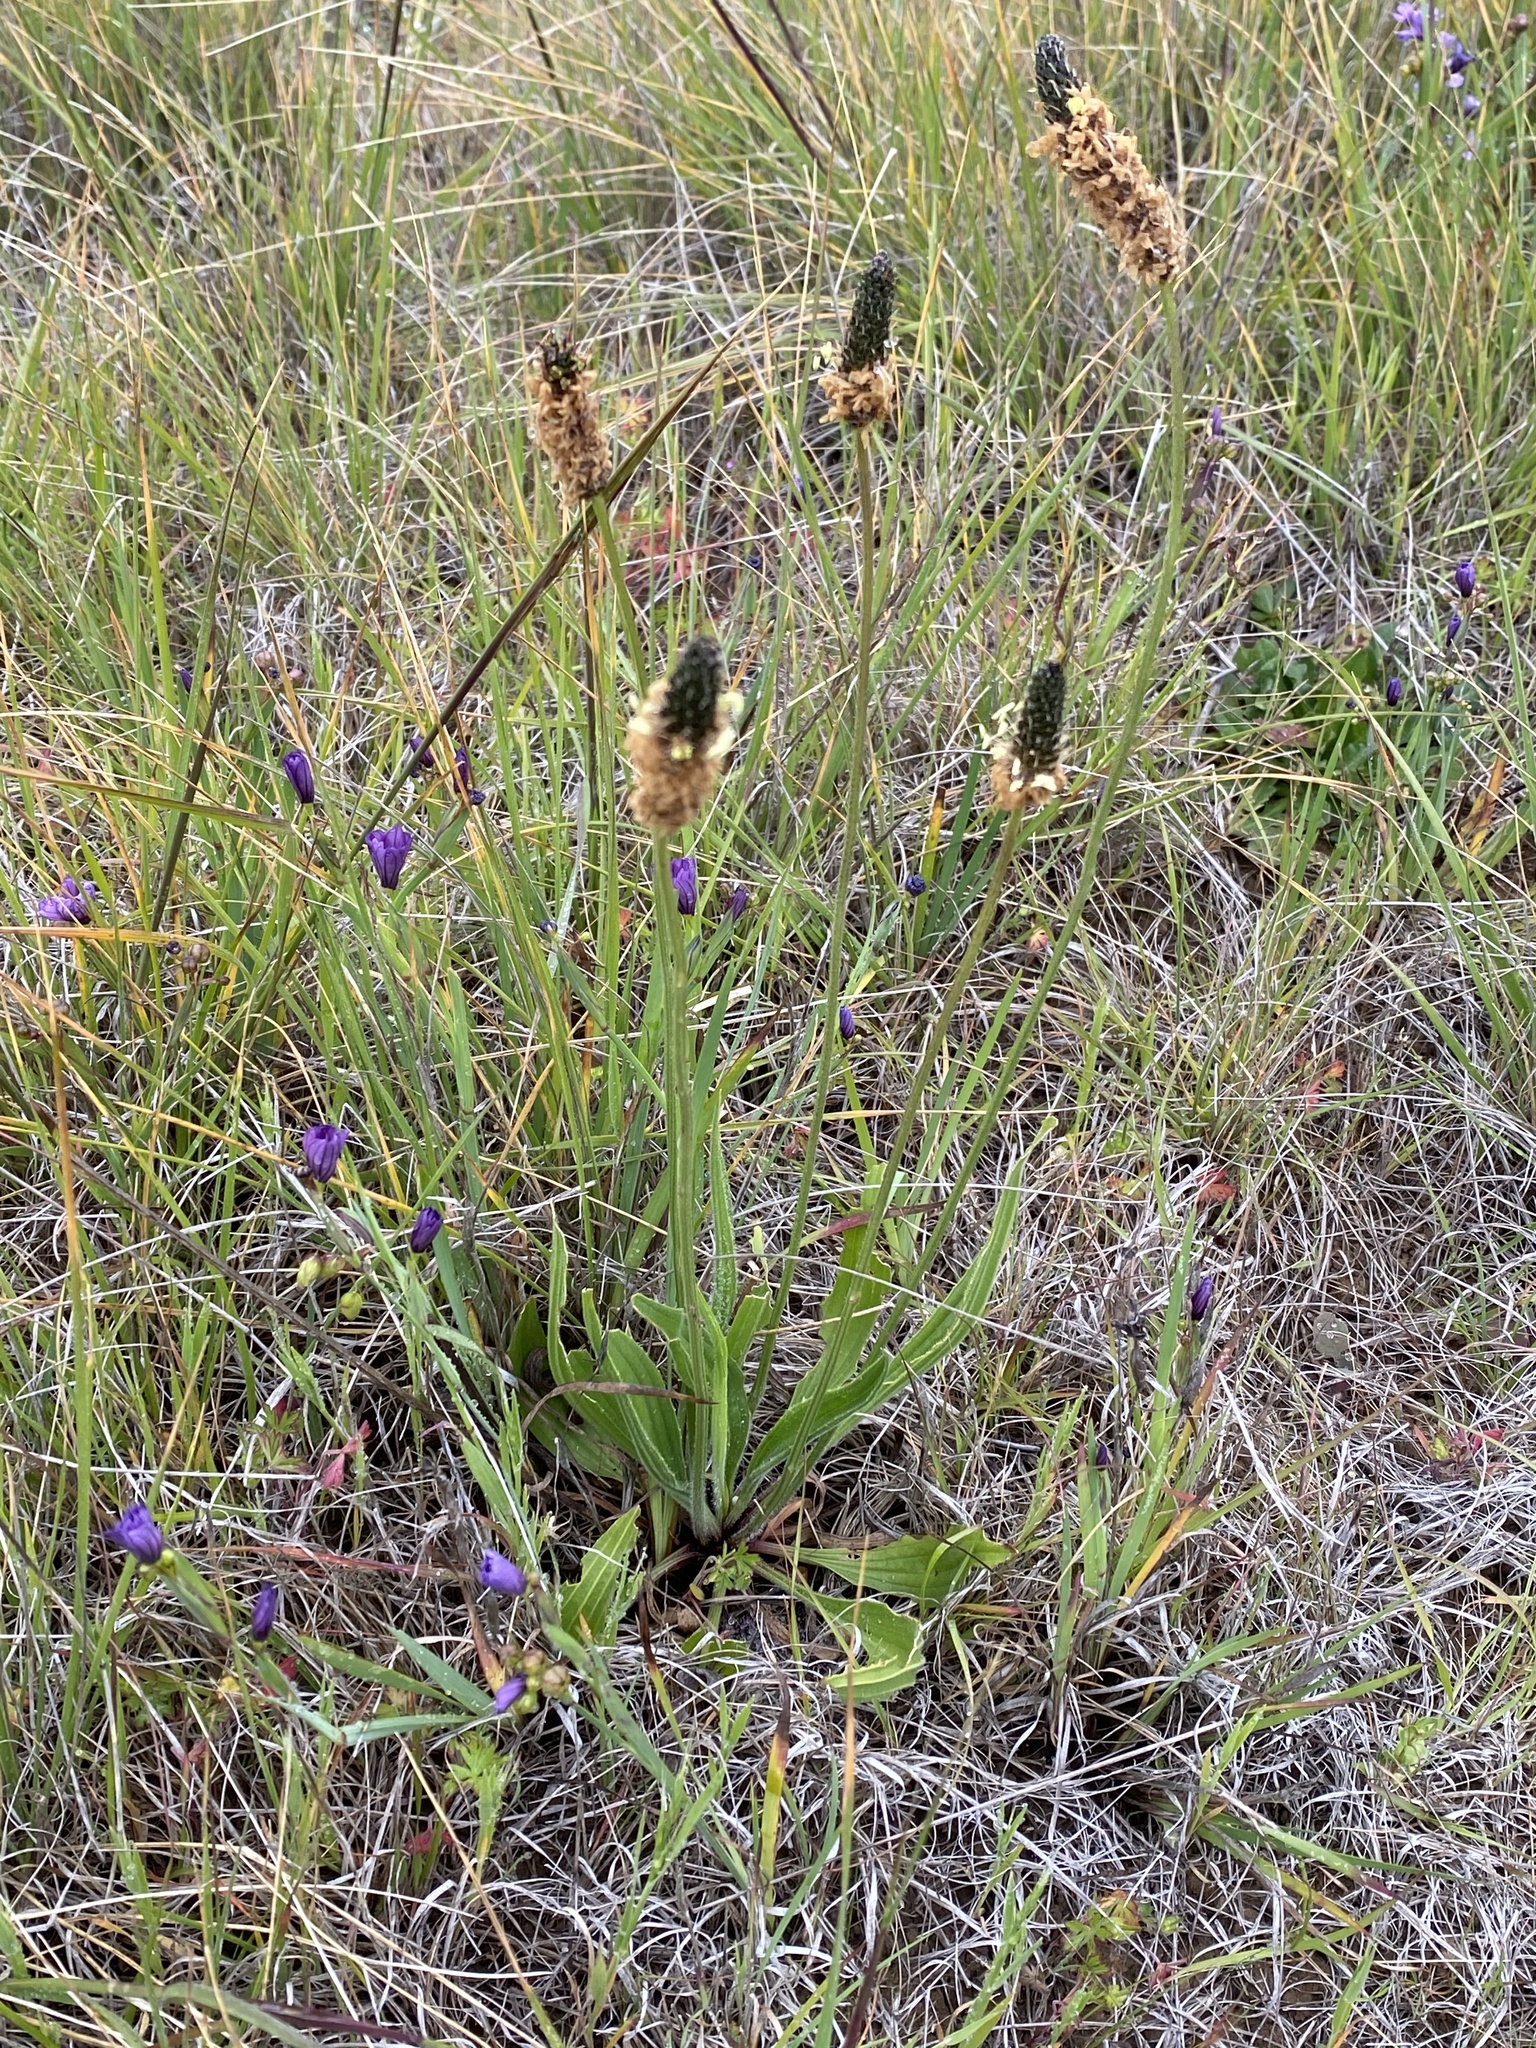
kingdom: Plantae
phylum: Tracheophyta
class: Magnoliopsida
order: Lamiales
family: Plantaginaceae
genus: Plantago
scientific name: Plantago lanceolata
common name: Ribwort plantain
